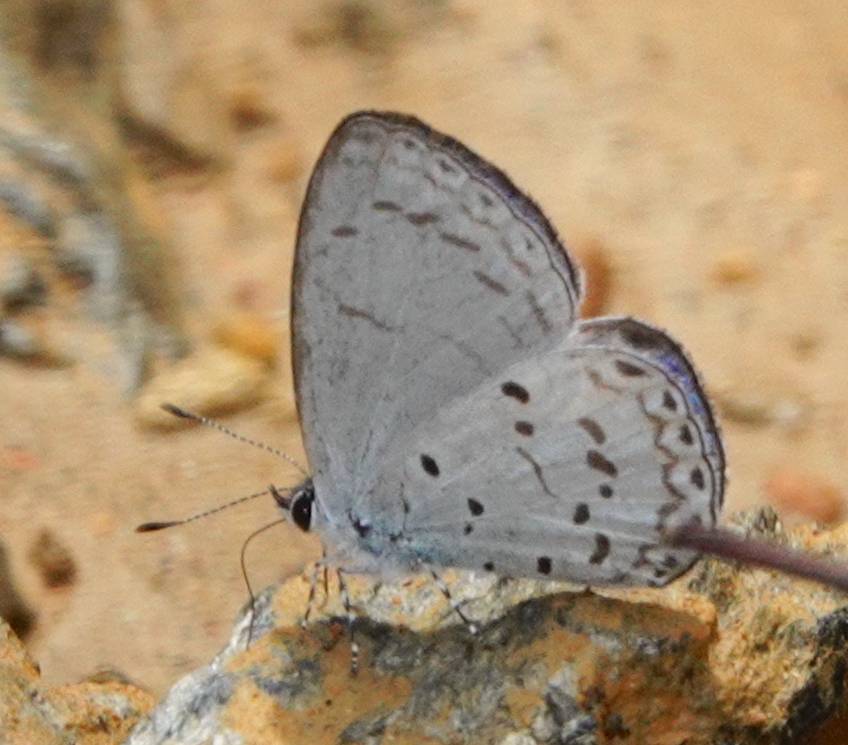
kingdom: Animalia
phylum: Arthropoda
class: Insecta
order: Lepidoptera
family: Lycaenidae
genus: Udara
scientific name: Udara
